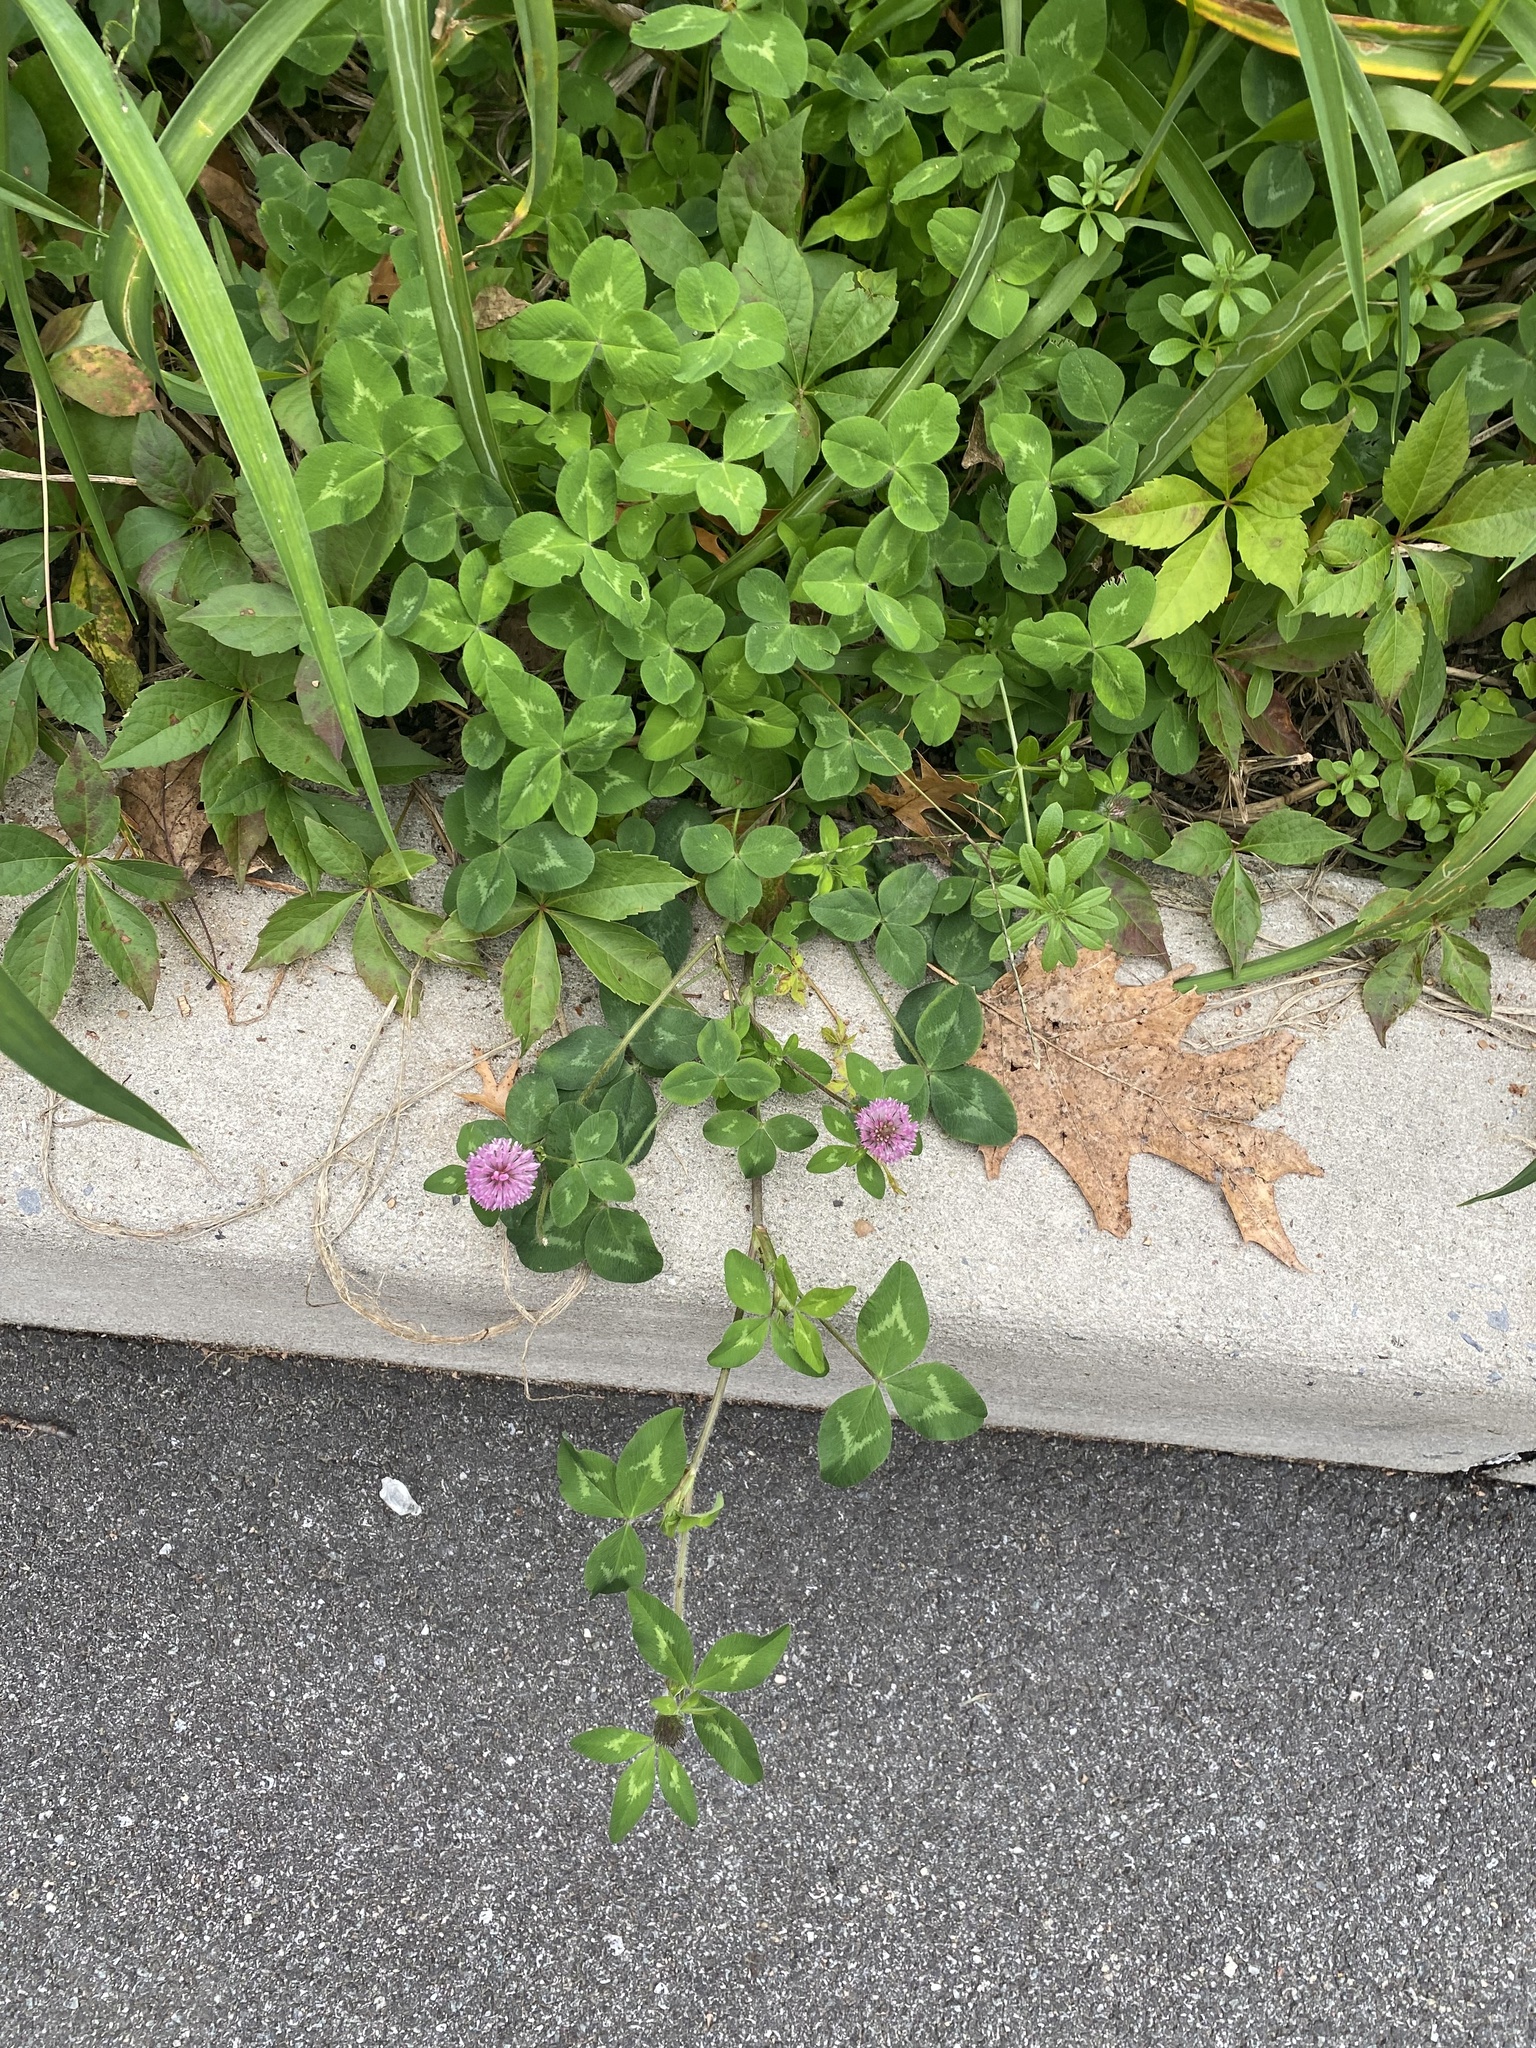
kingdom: Plantae
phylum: Tracheophyta
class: Magnoliopsida
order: Fabales
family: Fabaceae
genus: Trifolium
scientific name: Trifolium pratense
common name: Red clover
